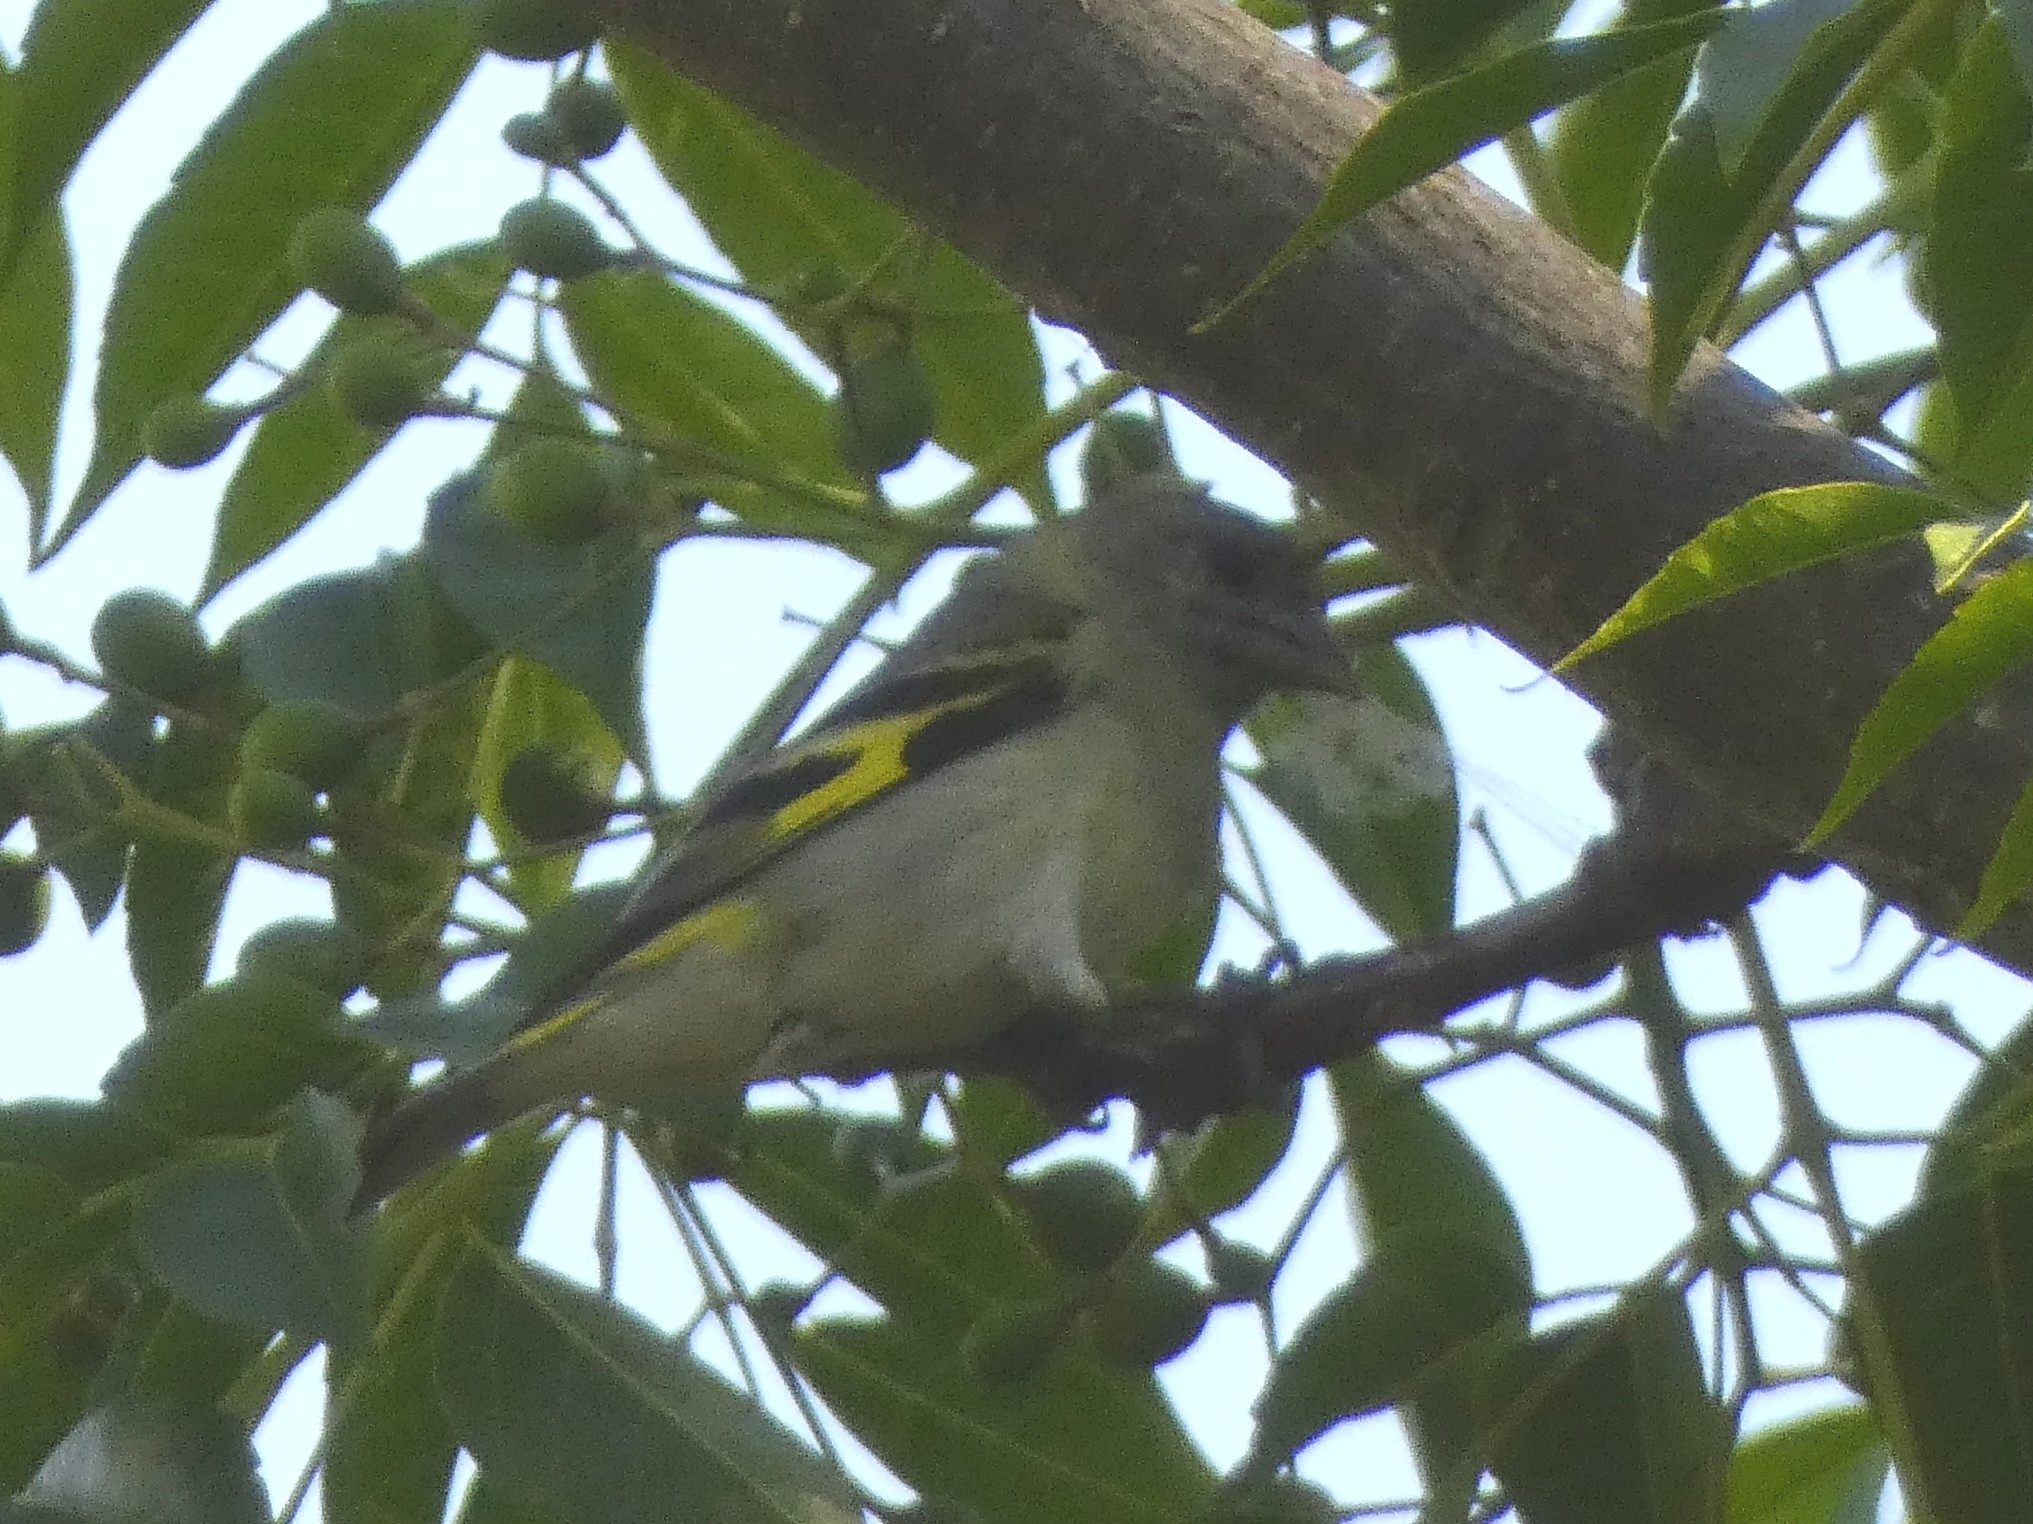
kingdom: Animalia
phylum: Chordata
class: Aves
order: Passeriformes
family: Fringillidae
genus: Spinus
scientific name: Spinus magellanicus
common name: Hooded siskin
